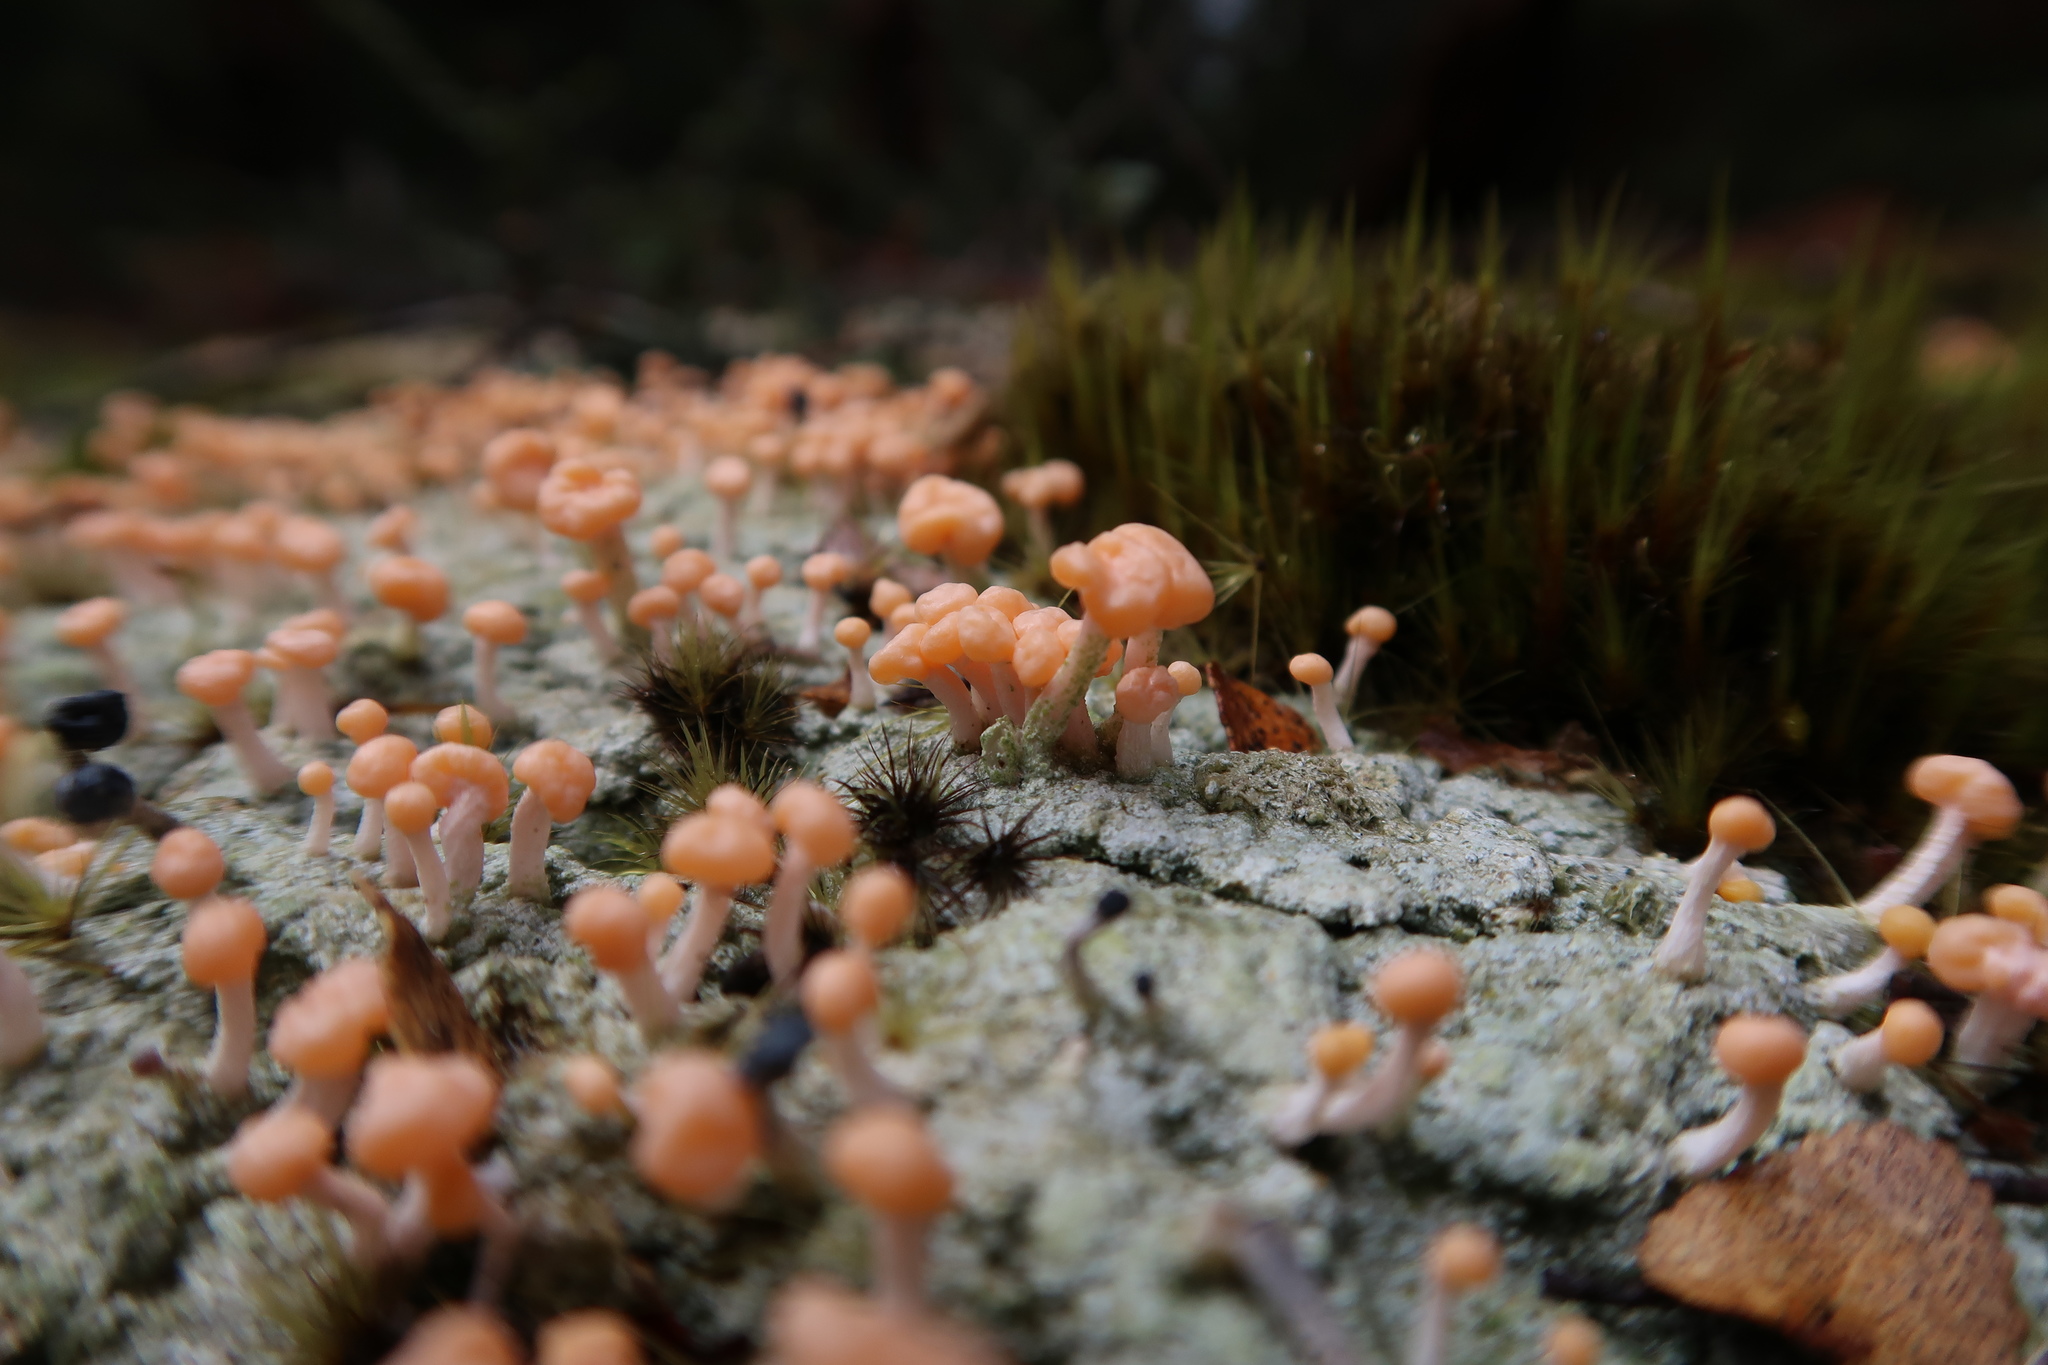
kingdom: Fungi
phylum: Ascomycota
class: Lecanoromycetes
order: Pertusariales
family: Icmadophilaceae
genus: Dibaeis
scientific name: Dibaeis arcuata
